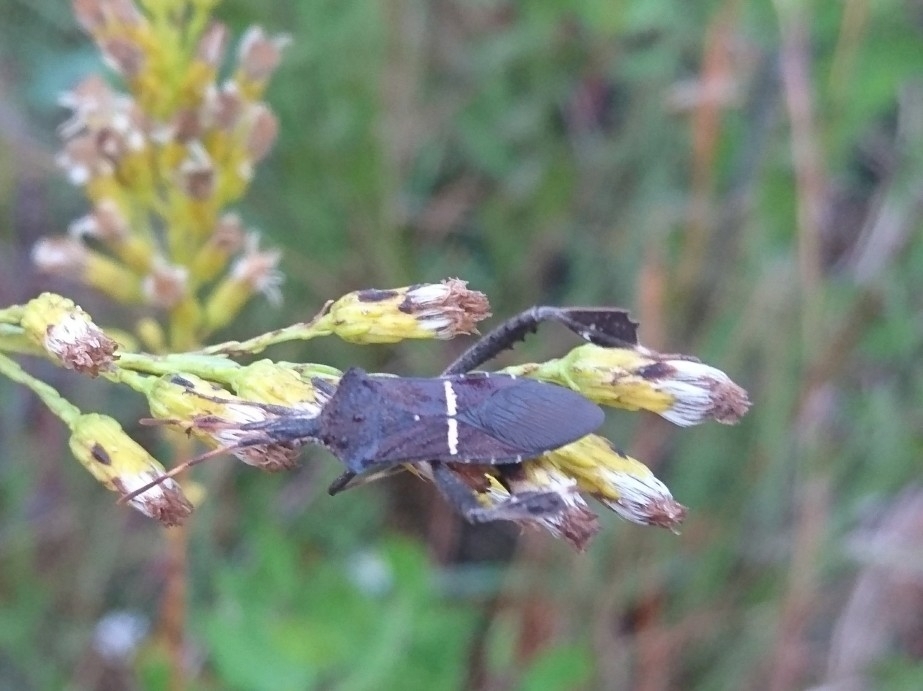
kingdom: Animalia
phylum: Arthropoda
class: Insecta
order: Hemiptera
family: Coreidae
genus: Leptoglossus
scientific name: Leptoglossus phyllopus
